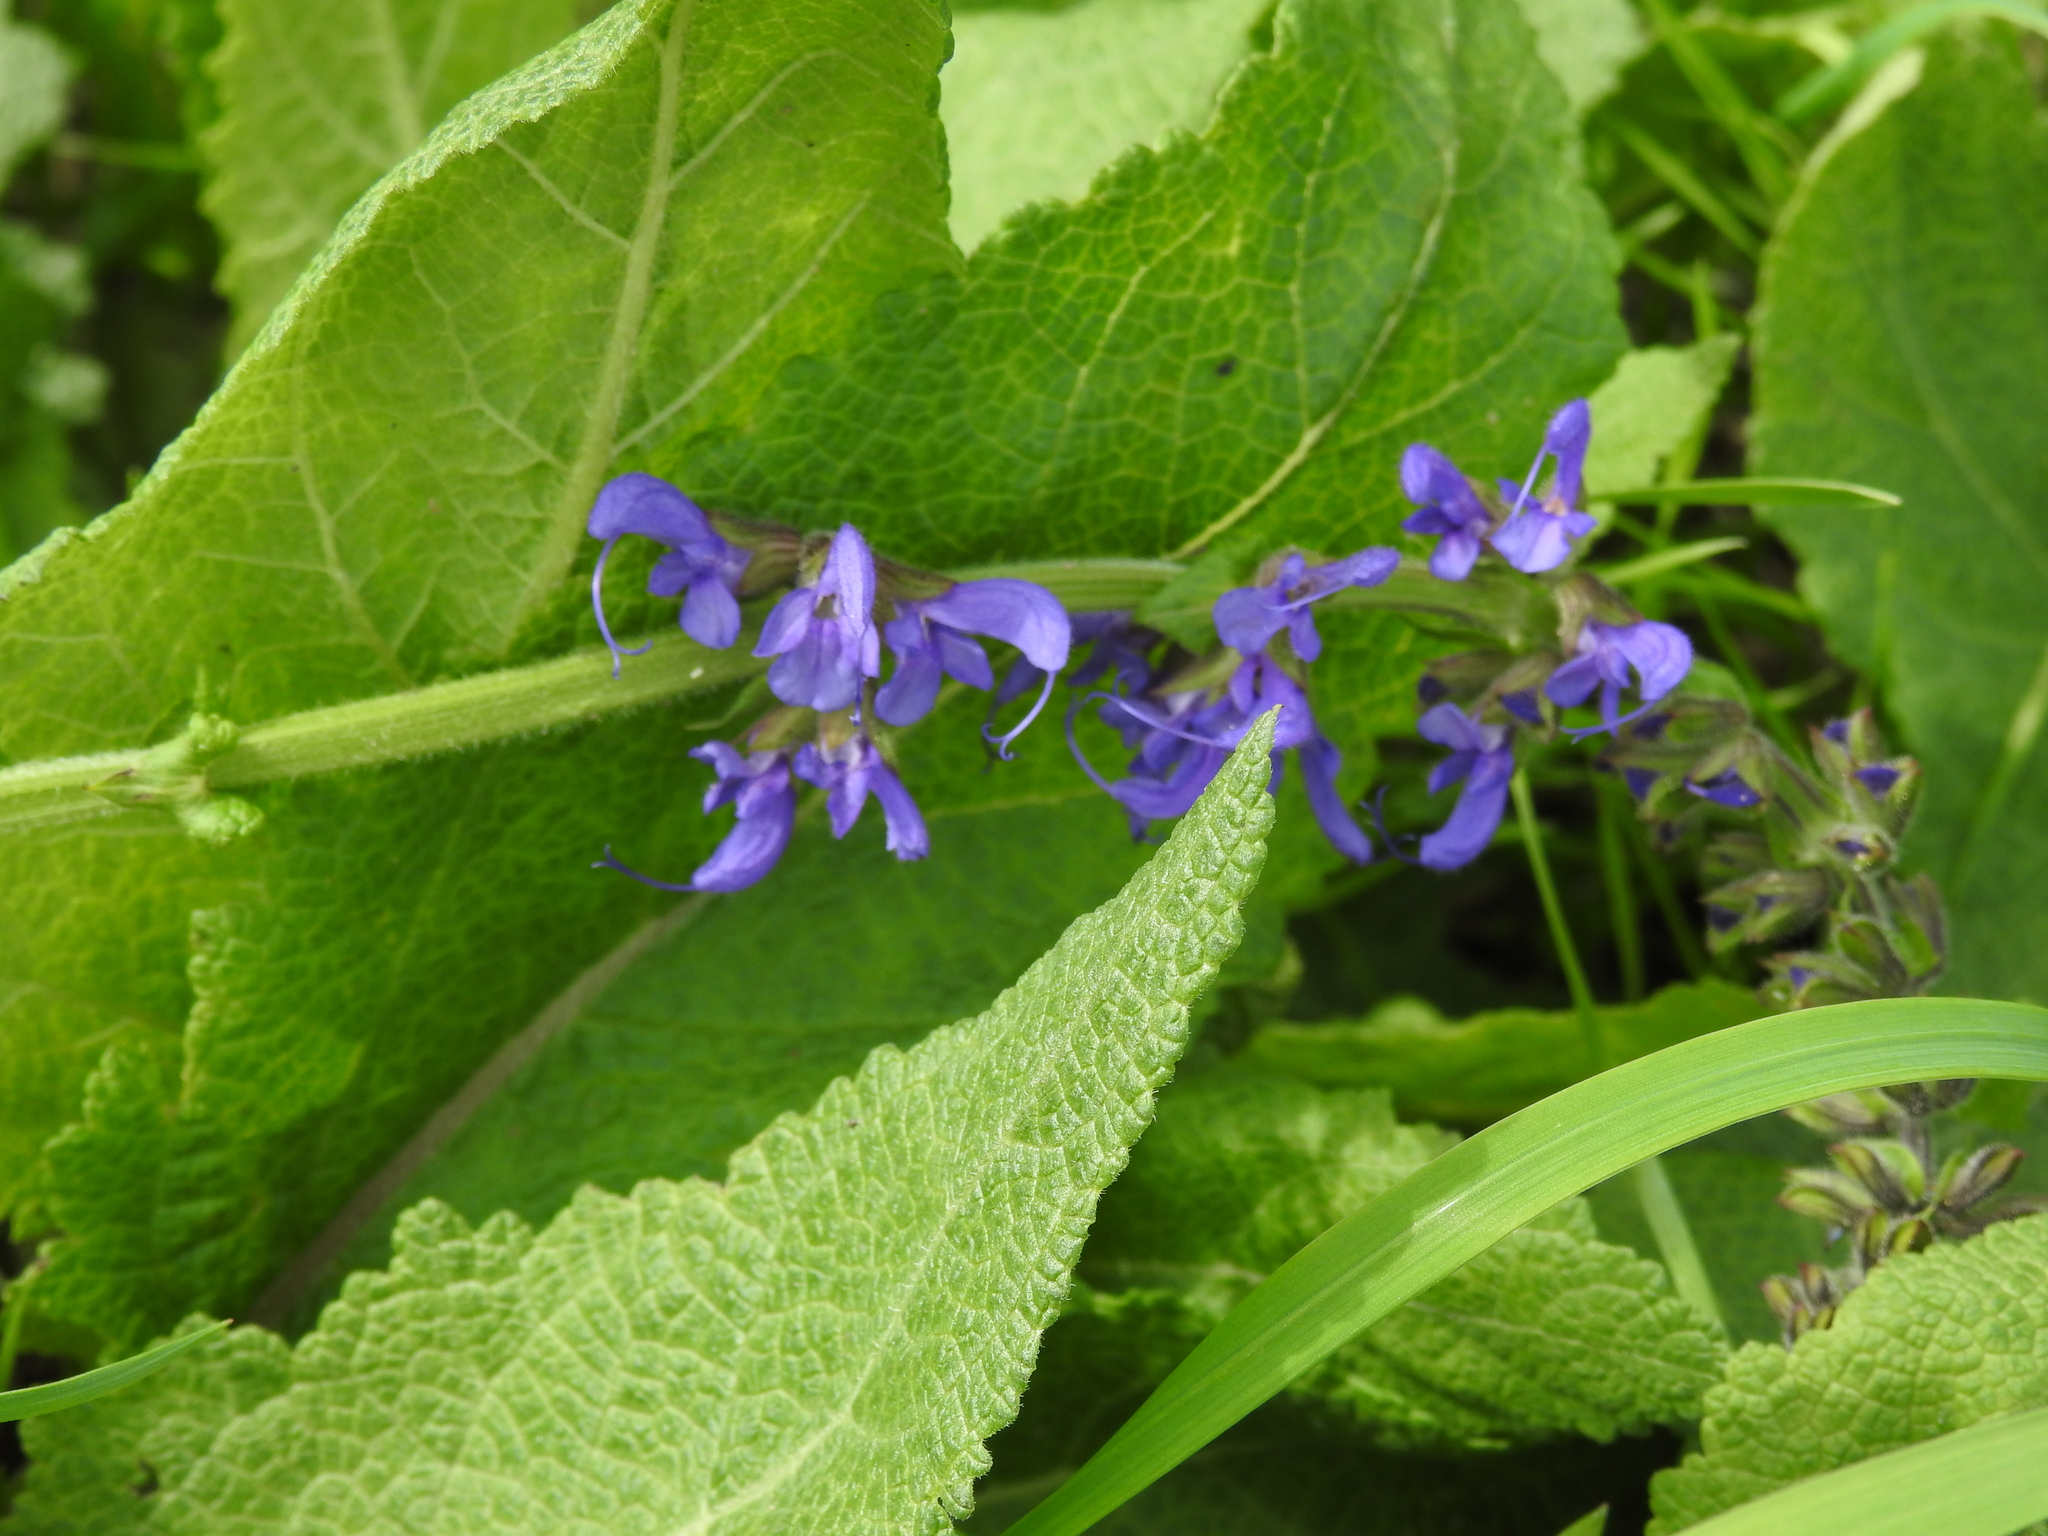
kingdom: Plantae
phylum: Tracheophyta
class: Magnoliopsida
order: Lamiales
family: Lamiaceae
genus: Salvia
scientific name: Salvia pratensis
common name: Meadow sage
